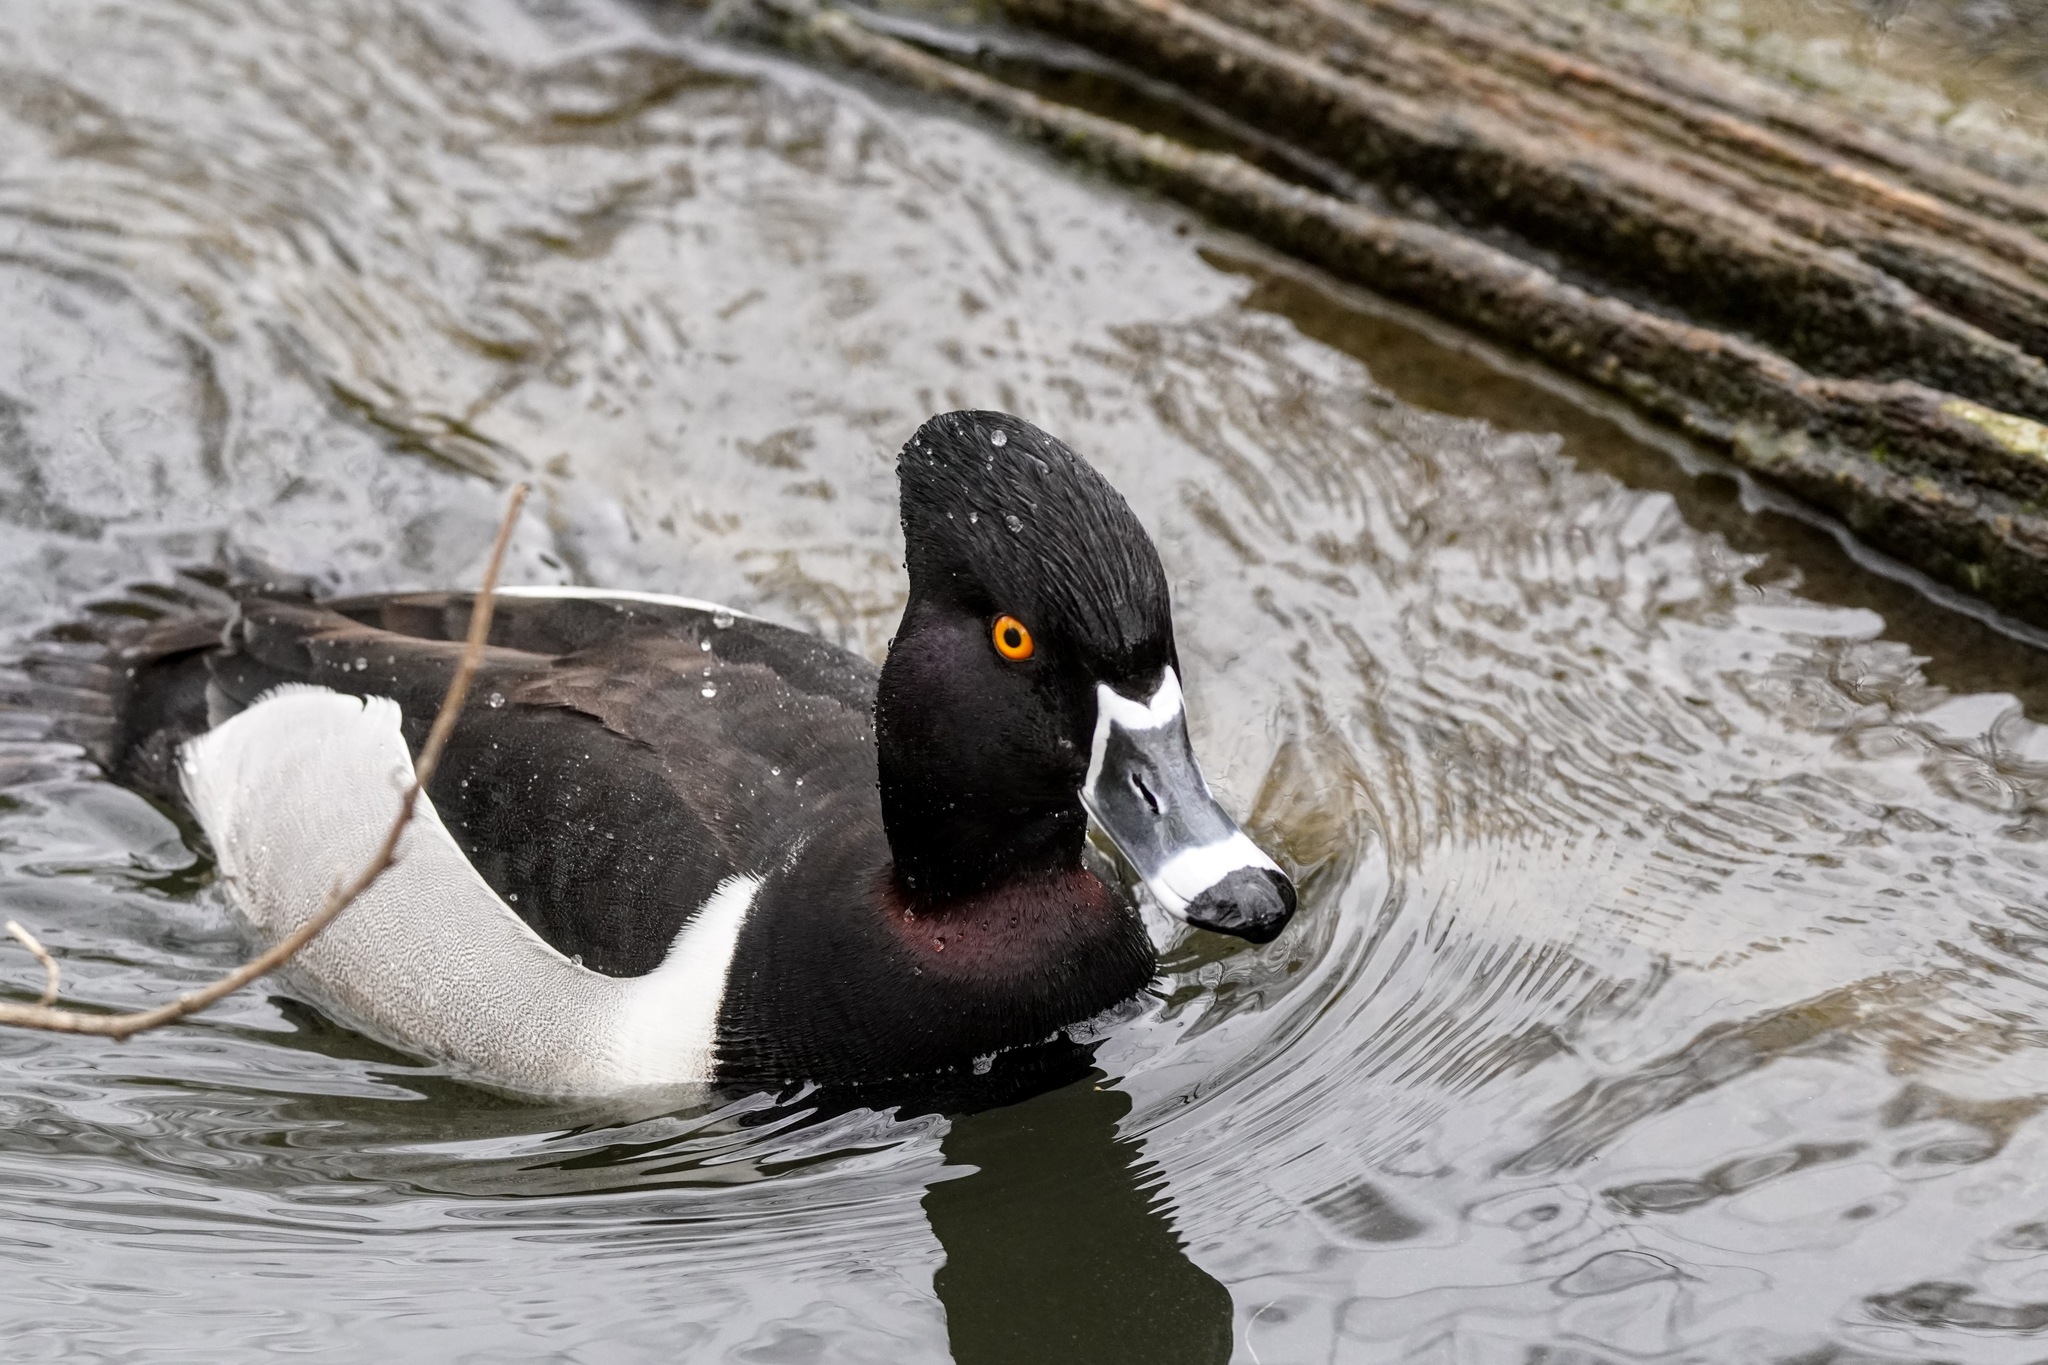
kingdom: Animalia
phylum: Chordata
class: Aves
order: Anseriformes
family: Anatidae
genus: Aythya
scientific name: Aythya collaris
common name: Ring-necked duck
